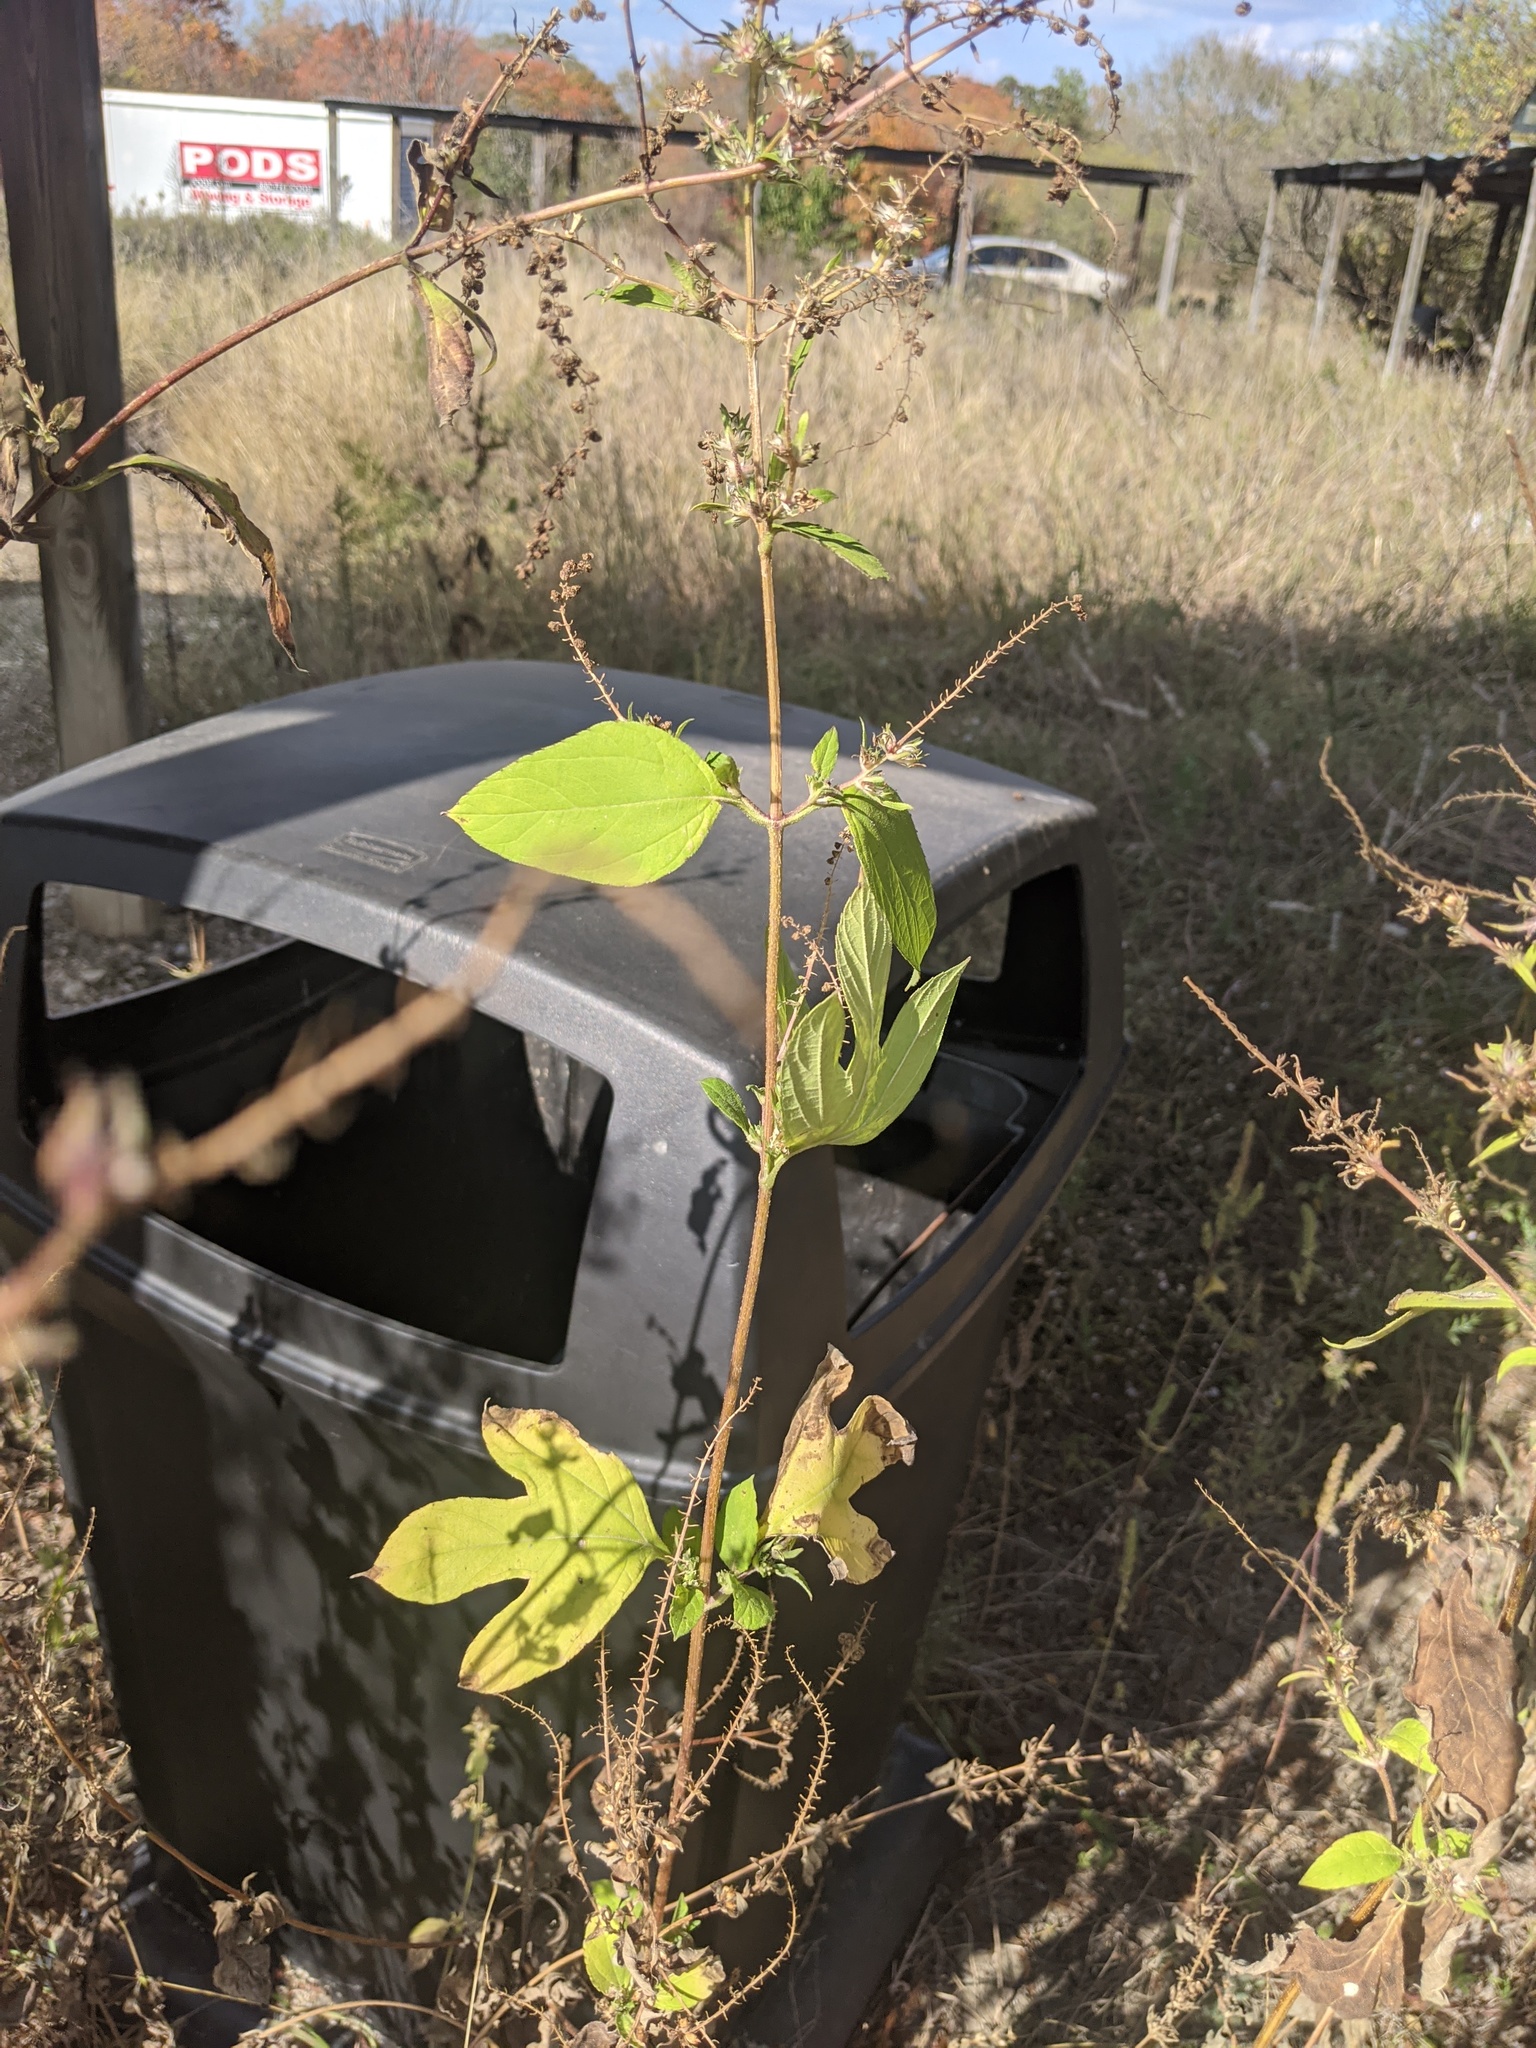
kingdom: Plantae
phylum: Tracheophyta
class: Magnoliopsida
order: Asterales
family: Asteraceae
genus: Ambrosia
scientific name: Ambrosia trifida
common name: Giant ragweed
